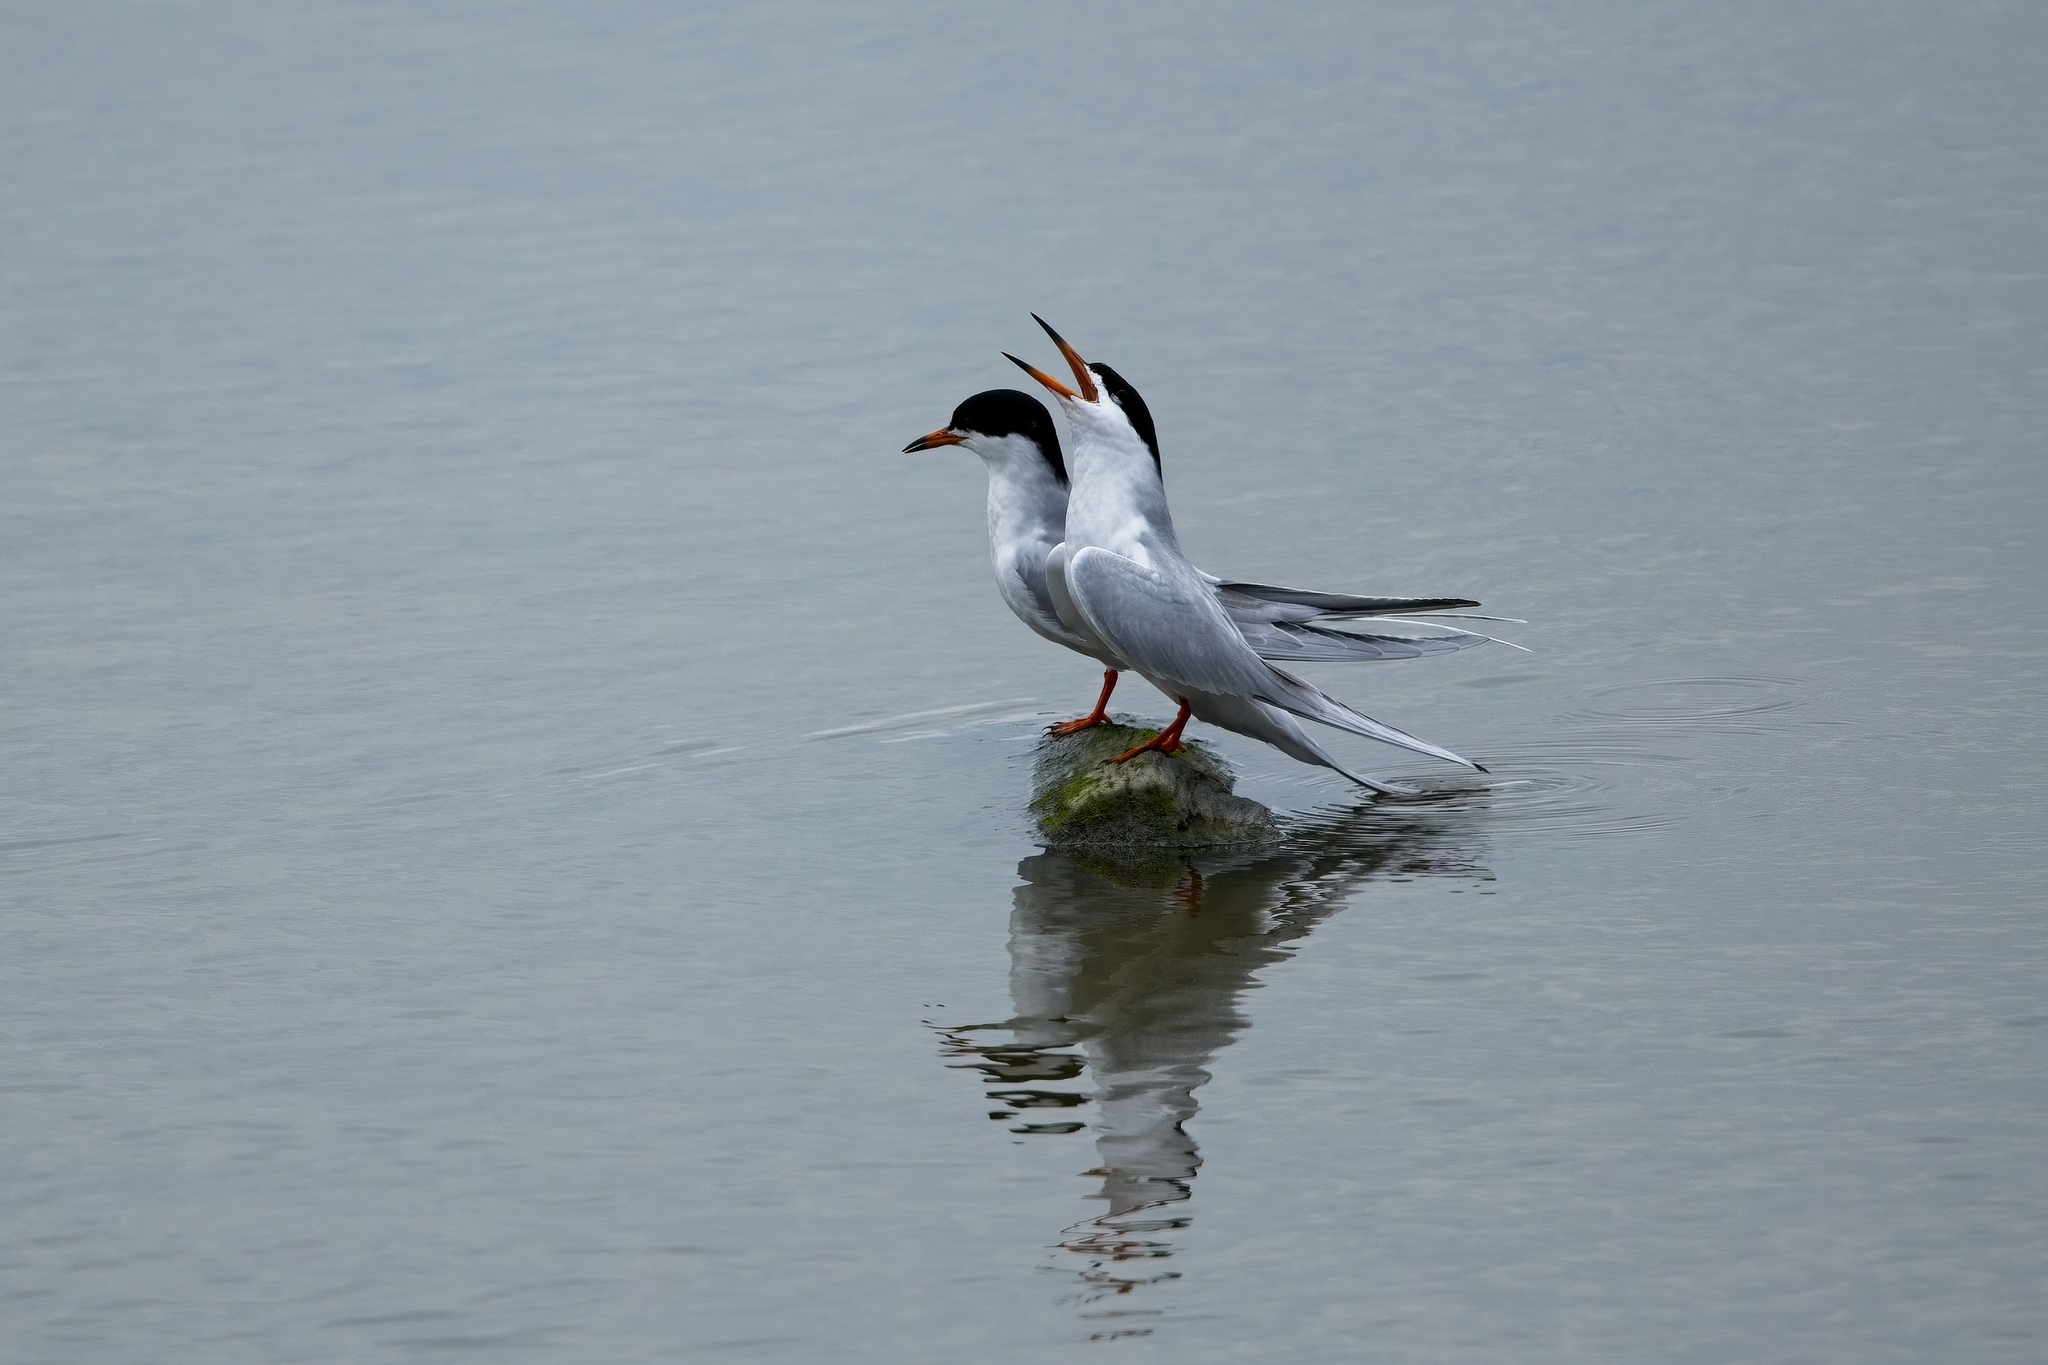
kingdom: Animalia
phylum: Chordata
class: Aves
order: Charadriiformes
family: Laridae
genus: Sterna
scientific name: Sterna forsteri
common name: Forster's tern
